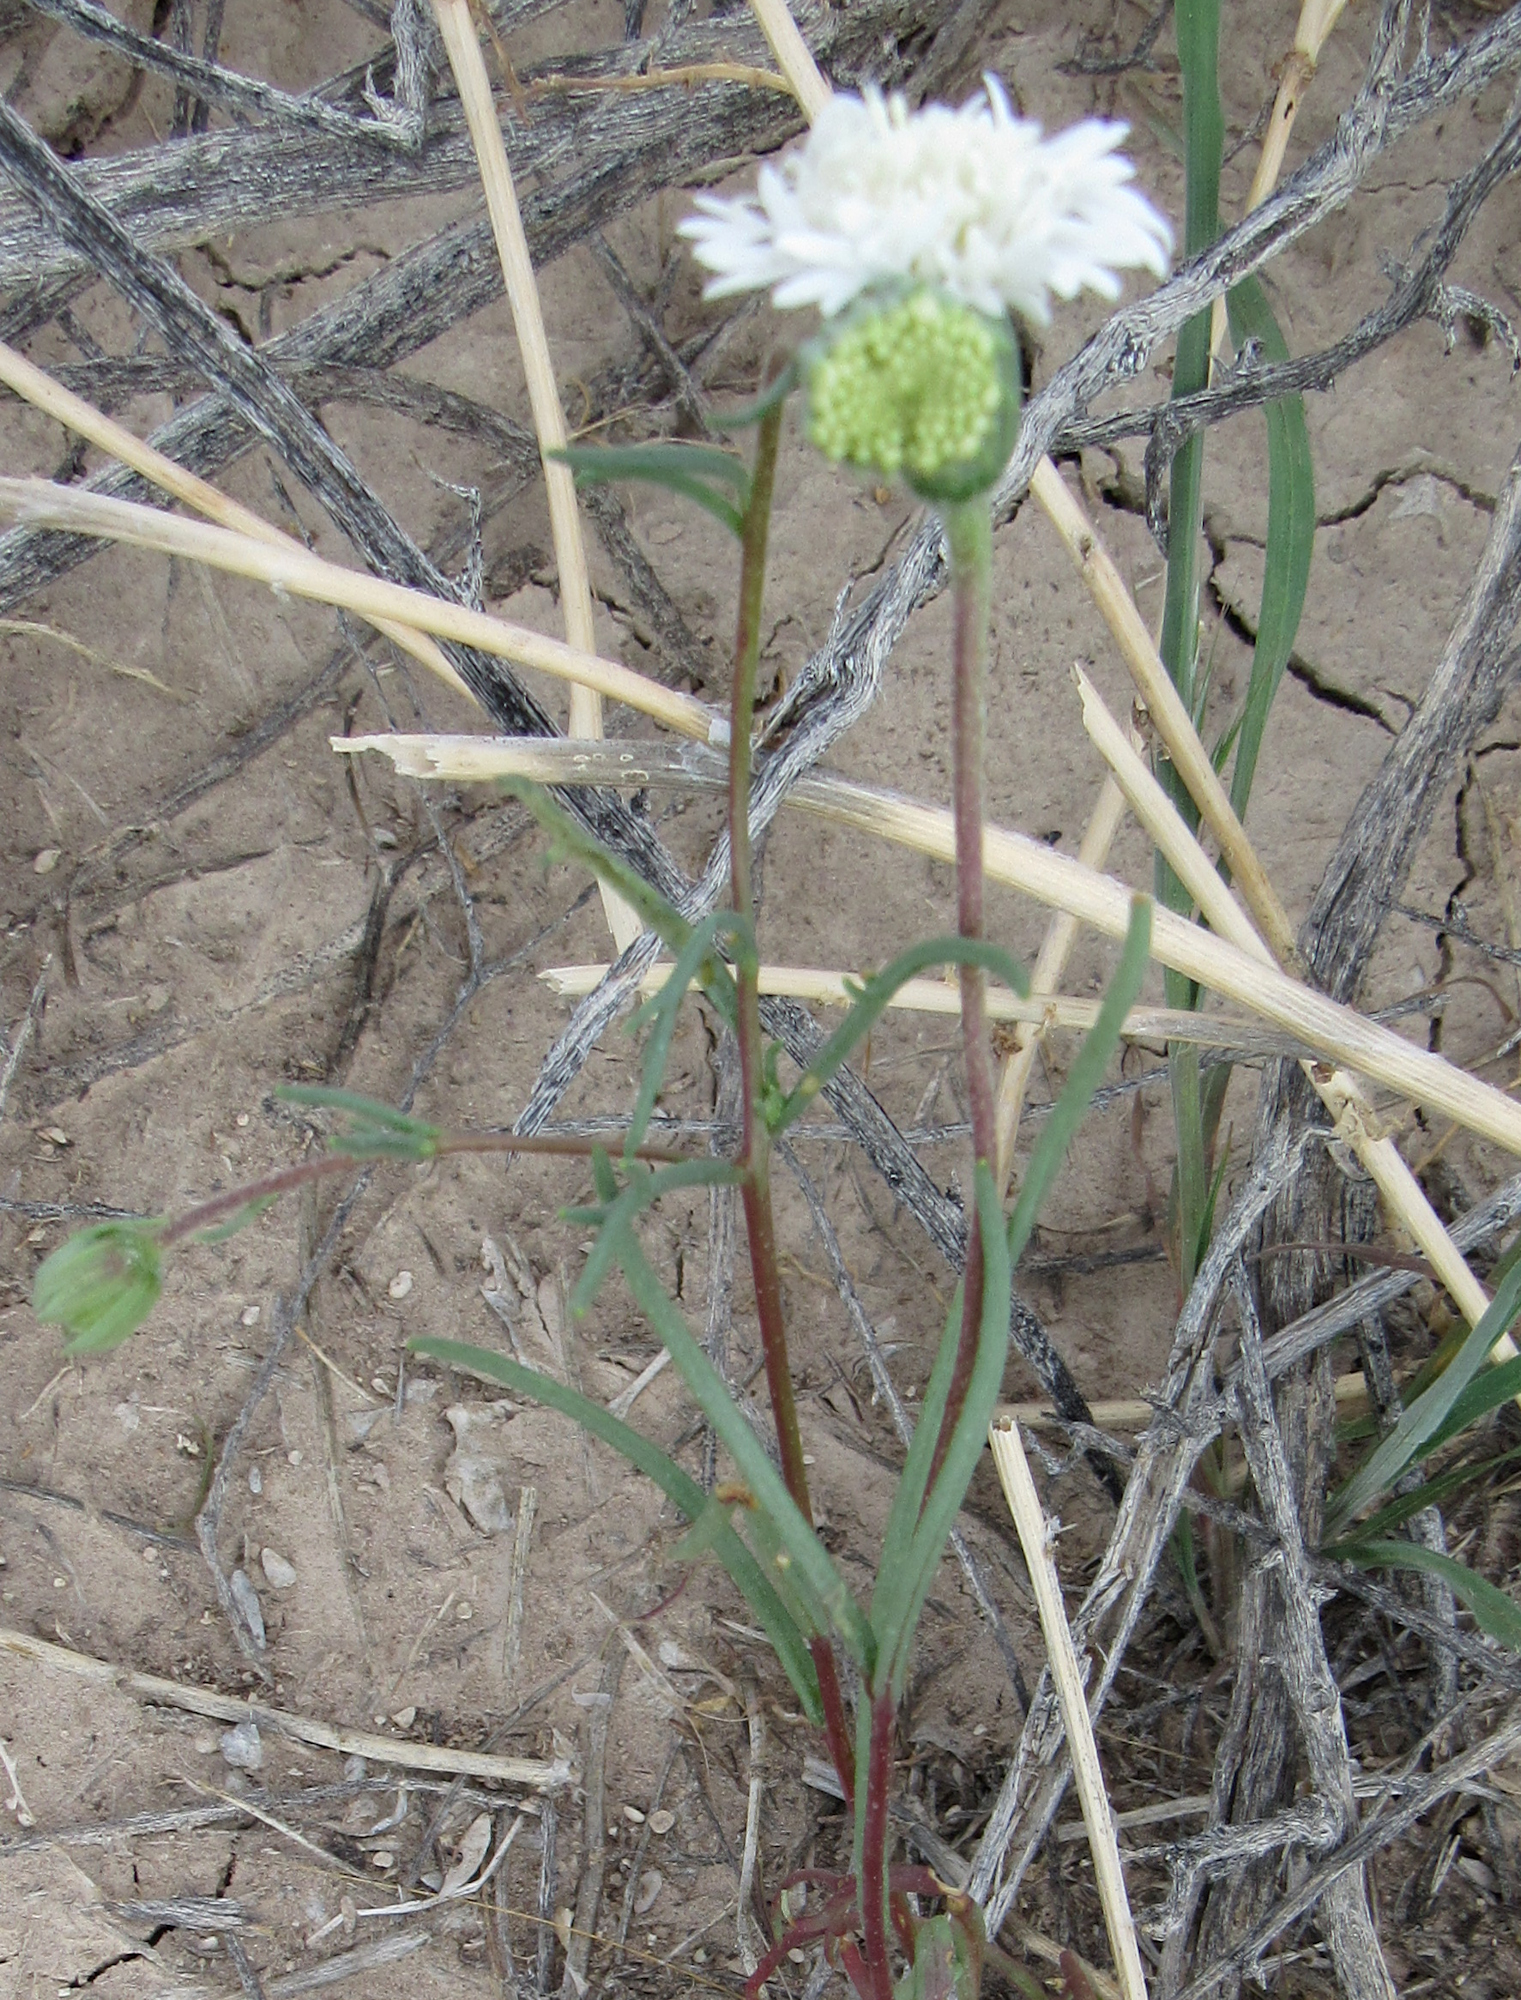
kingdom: Plantae
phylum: Tracheophyta
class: Magnoliopsida
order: Asterales
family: Asteraceae
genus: Chaenactis
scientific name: Chaenactis fremontii
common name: Fremont pincushion
